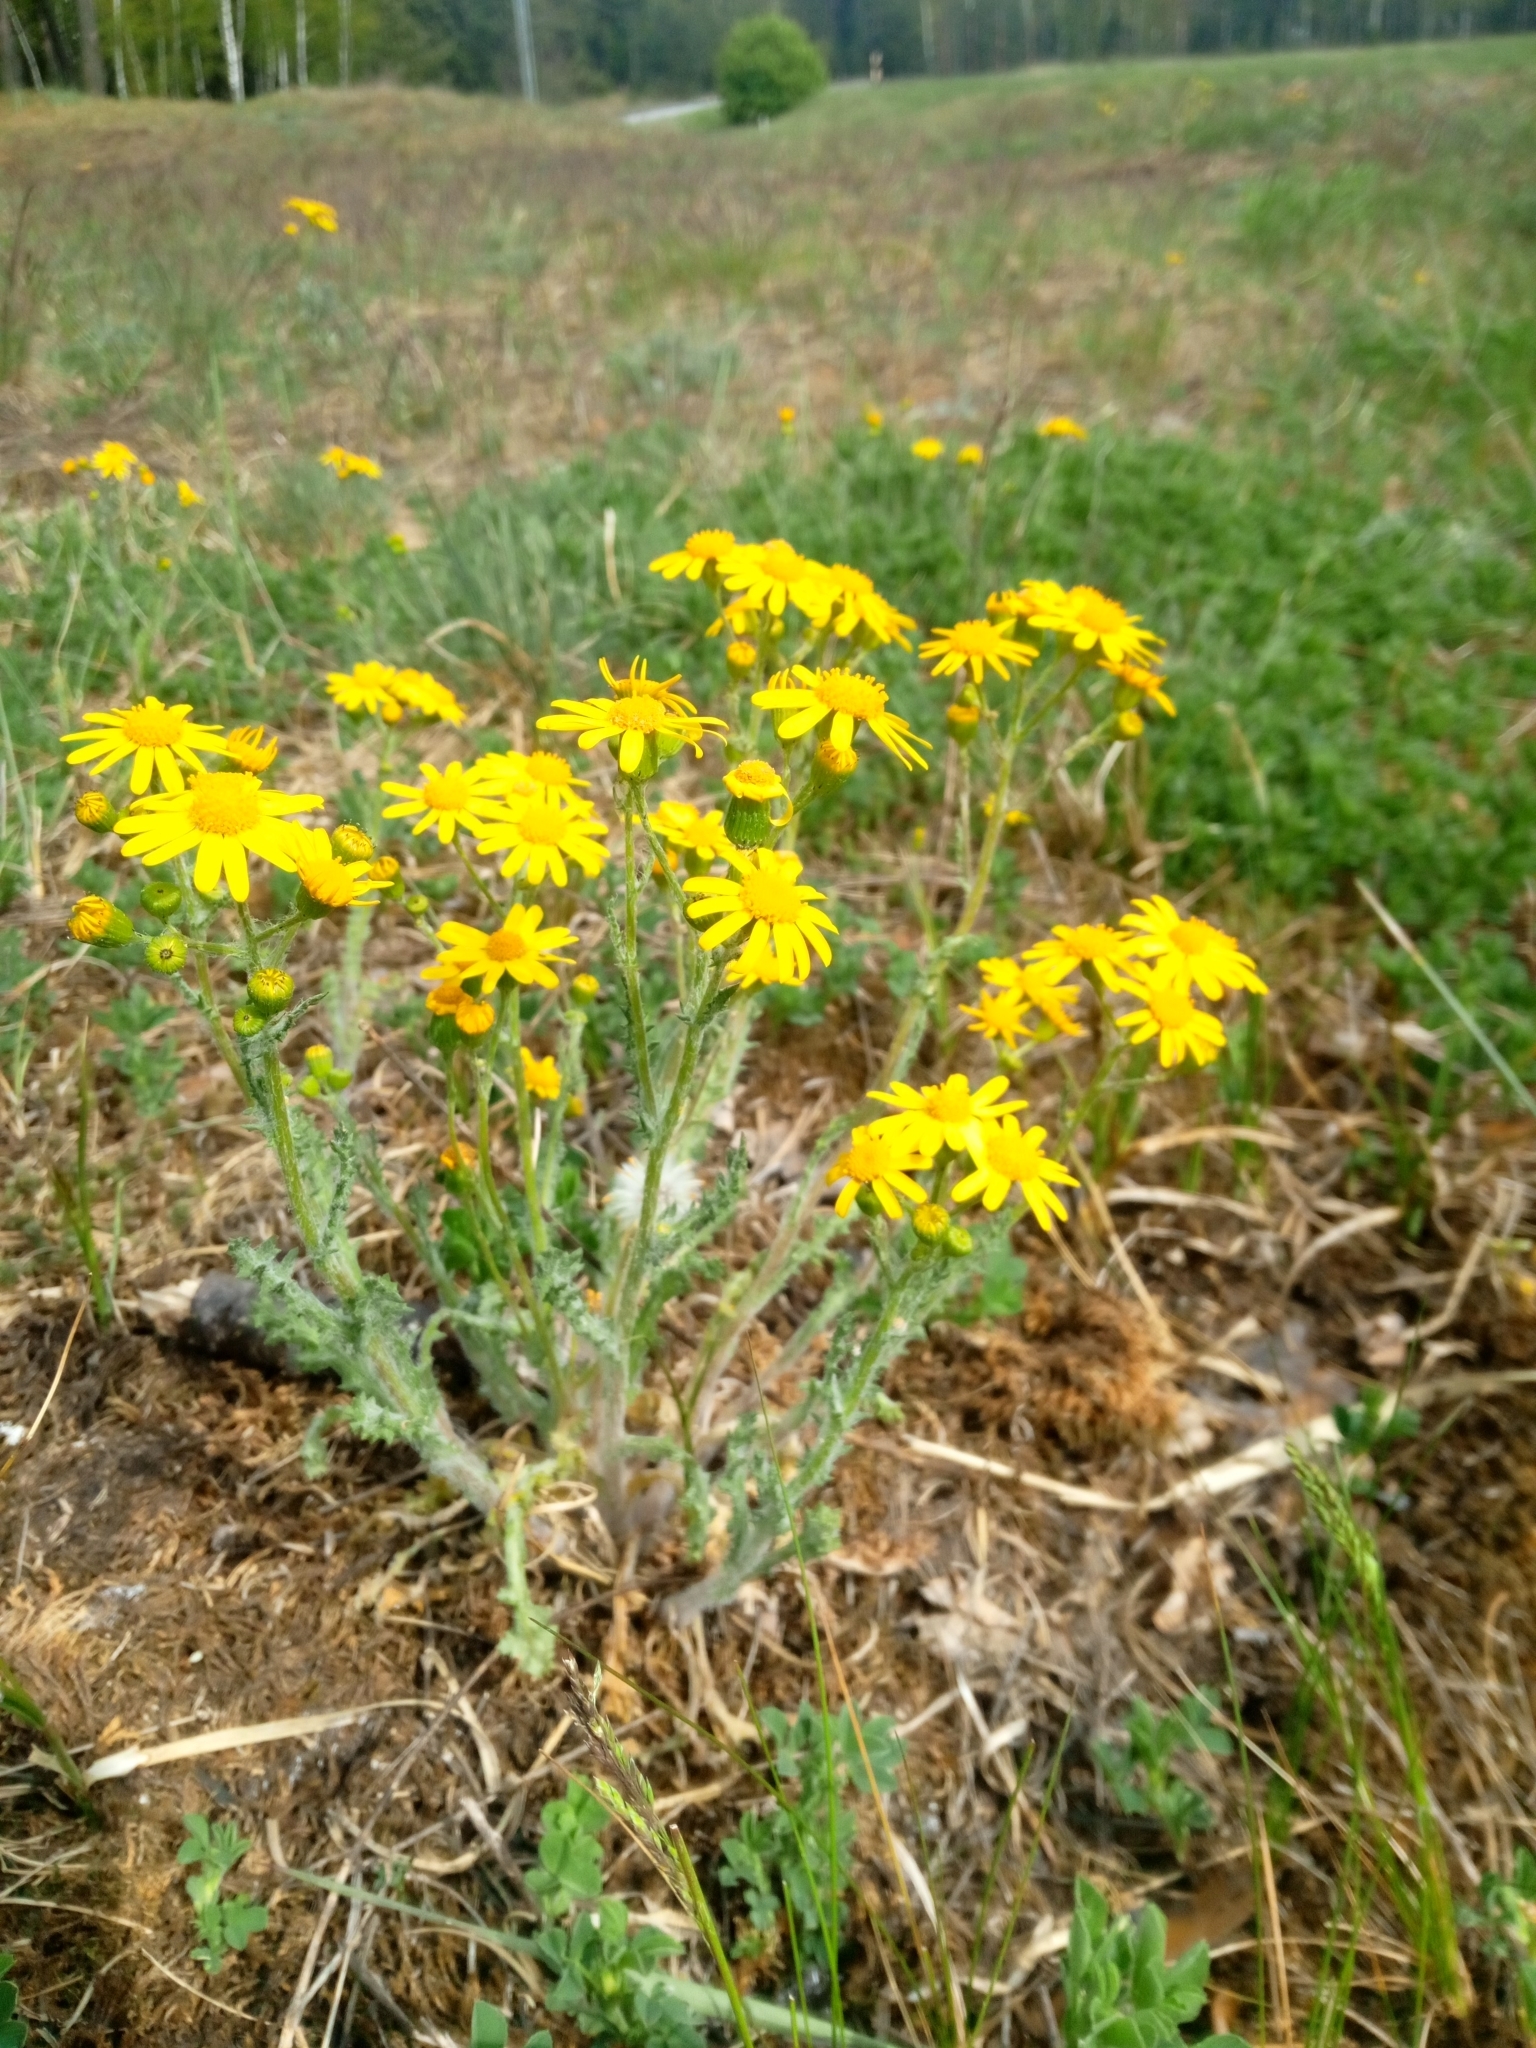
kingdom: Plantae
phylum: Tracheophyta
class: Magnoliopsida
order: Asterales
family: Asteraceae
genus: Senecio
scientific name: Senecio vernalis
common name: Eastern groundsel
